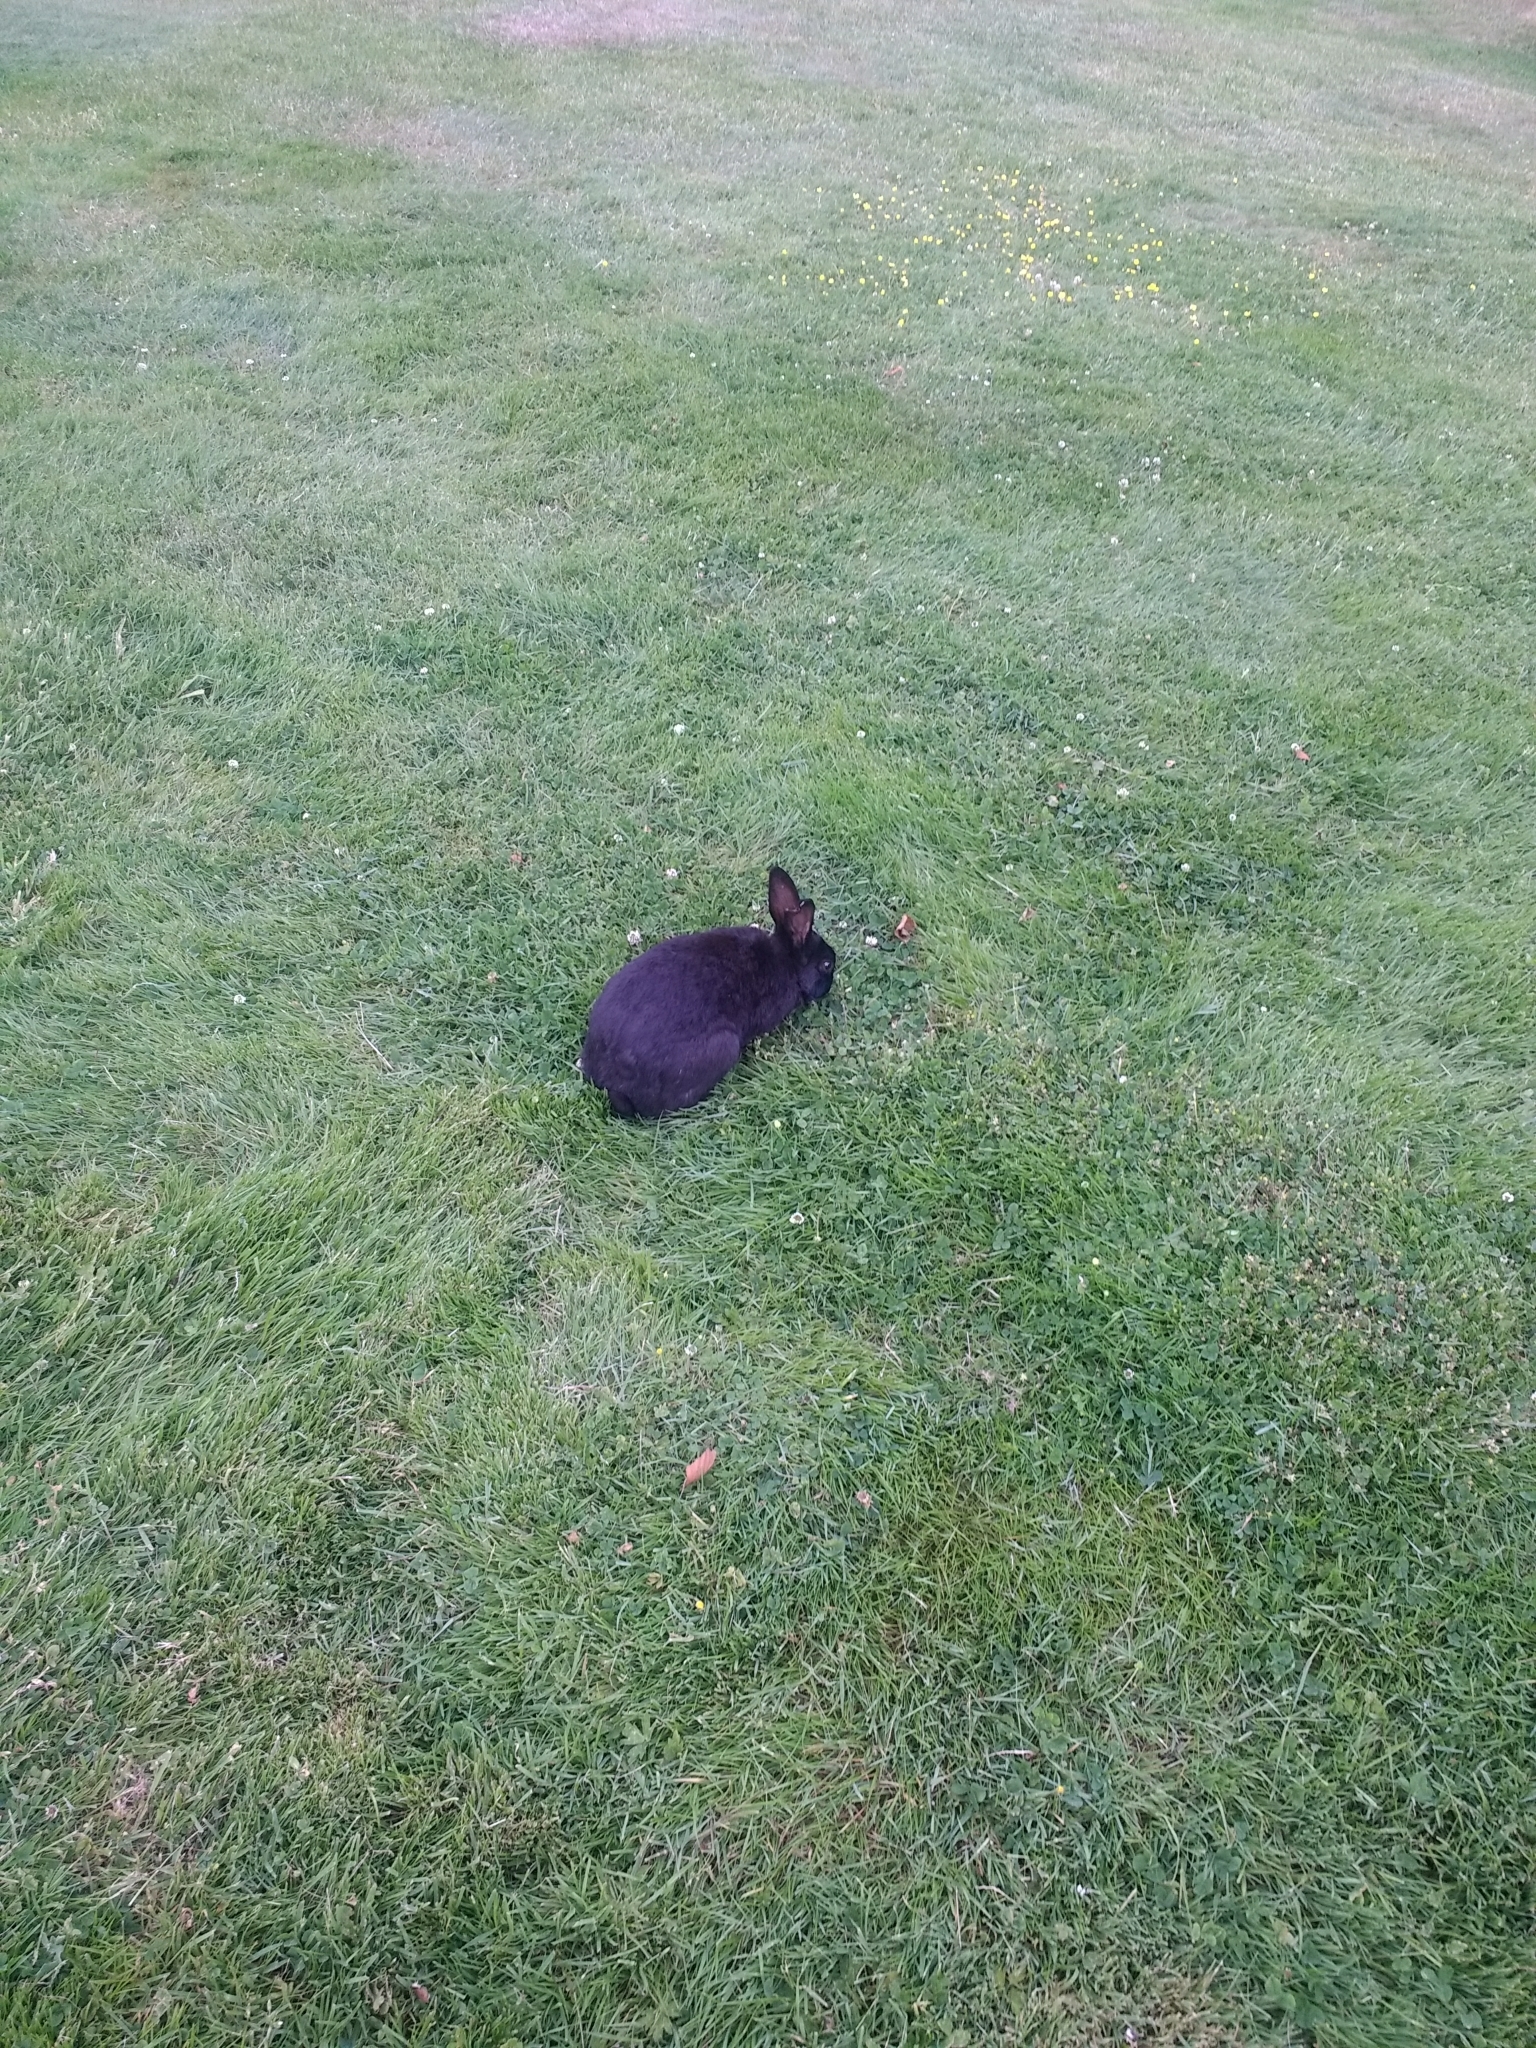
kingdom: Animalia
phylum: Chordata
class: Mammalia
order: Lagomorpha
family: Leporidae
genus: Oryctolagus
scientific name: Oryctolagus cuniculus
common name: European rabbit
